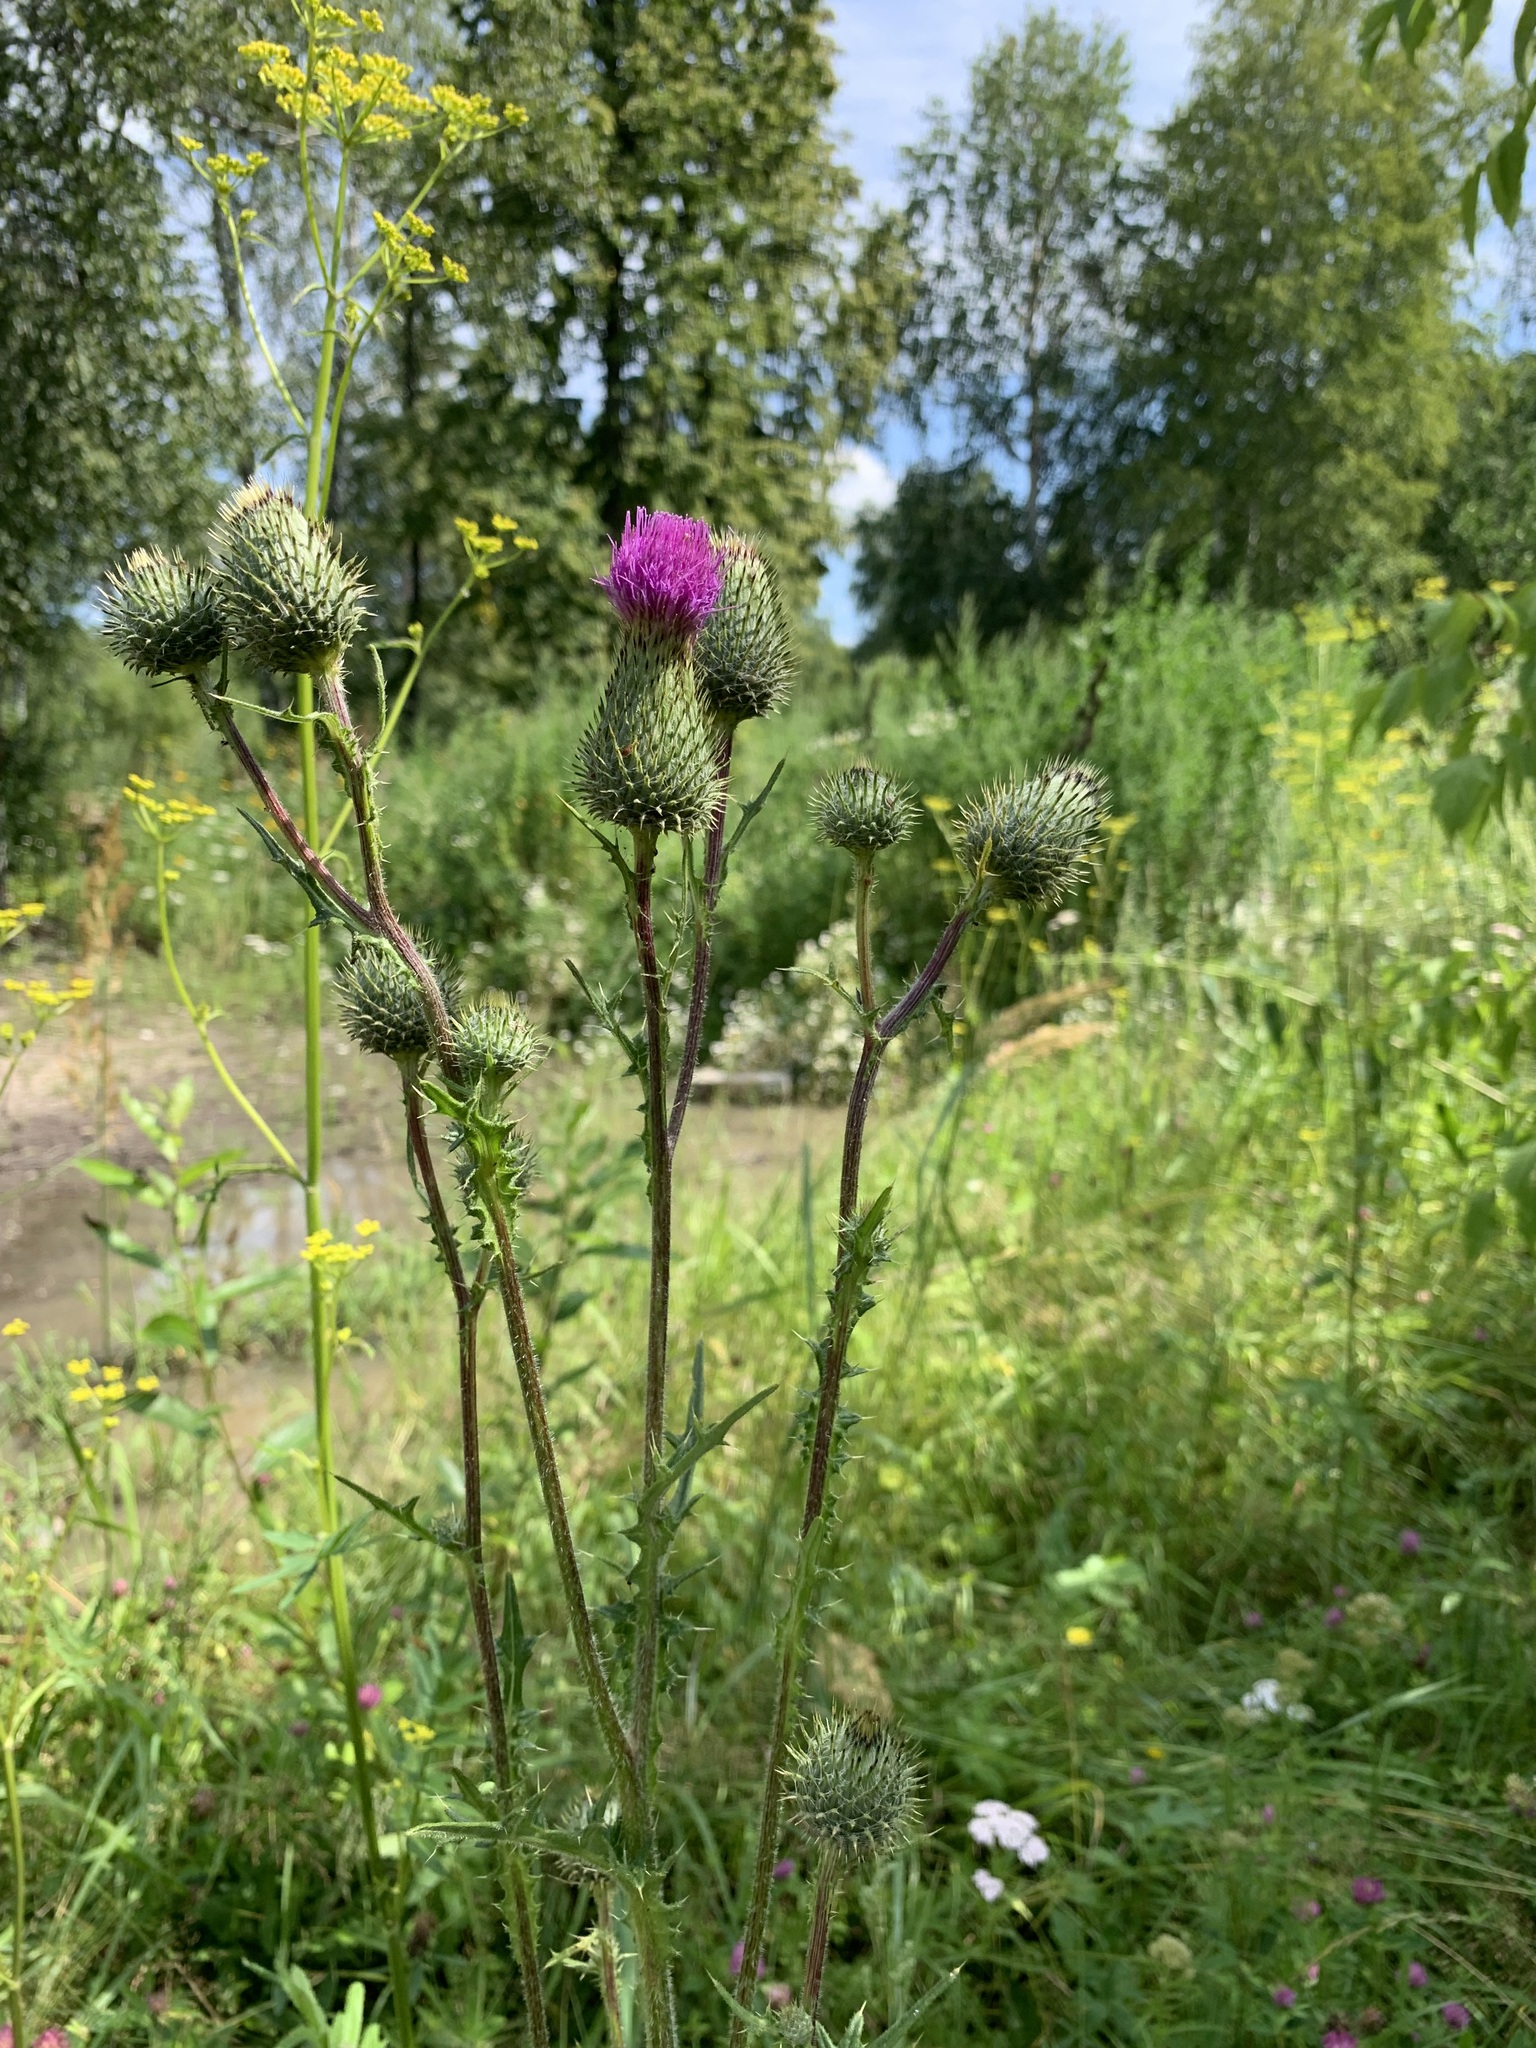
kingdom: Plantae
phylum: Tracheophyta
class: Magnoliopsida
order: Asterales
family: Asteraceae
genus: Cirsium
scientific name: Cirsium vulgare
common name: Bull thistle
